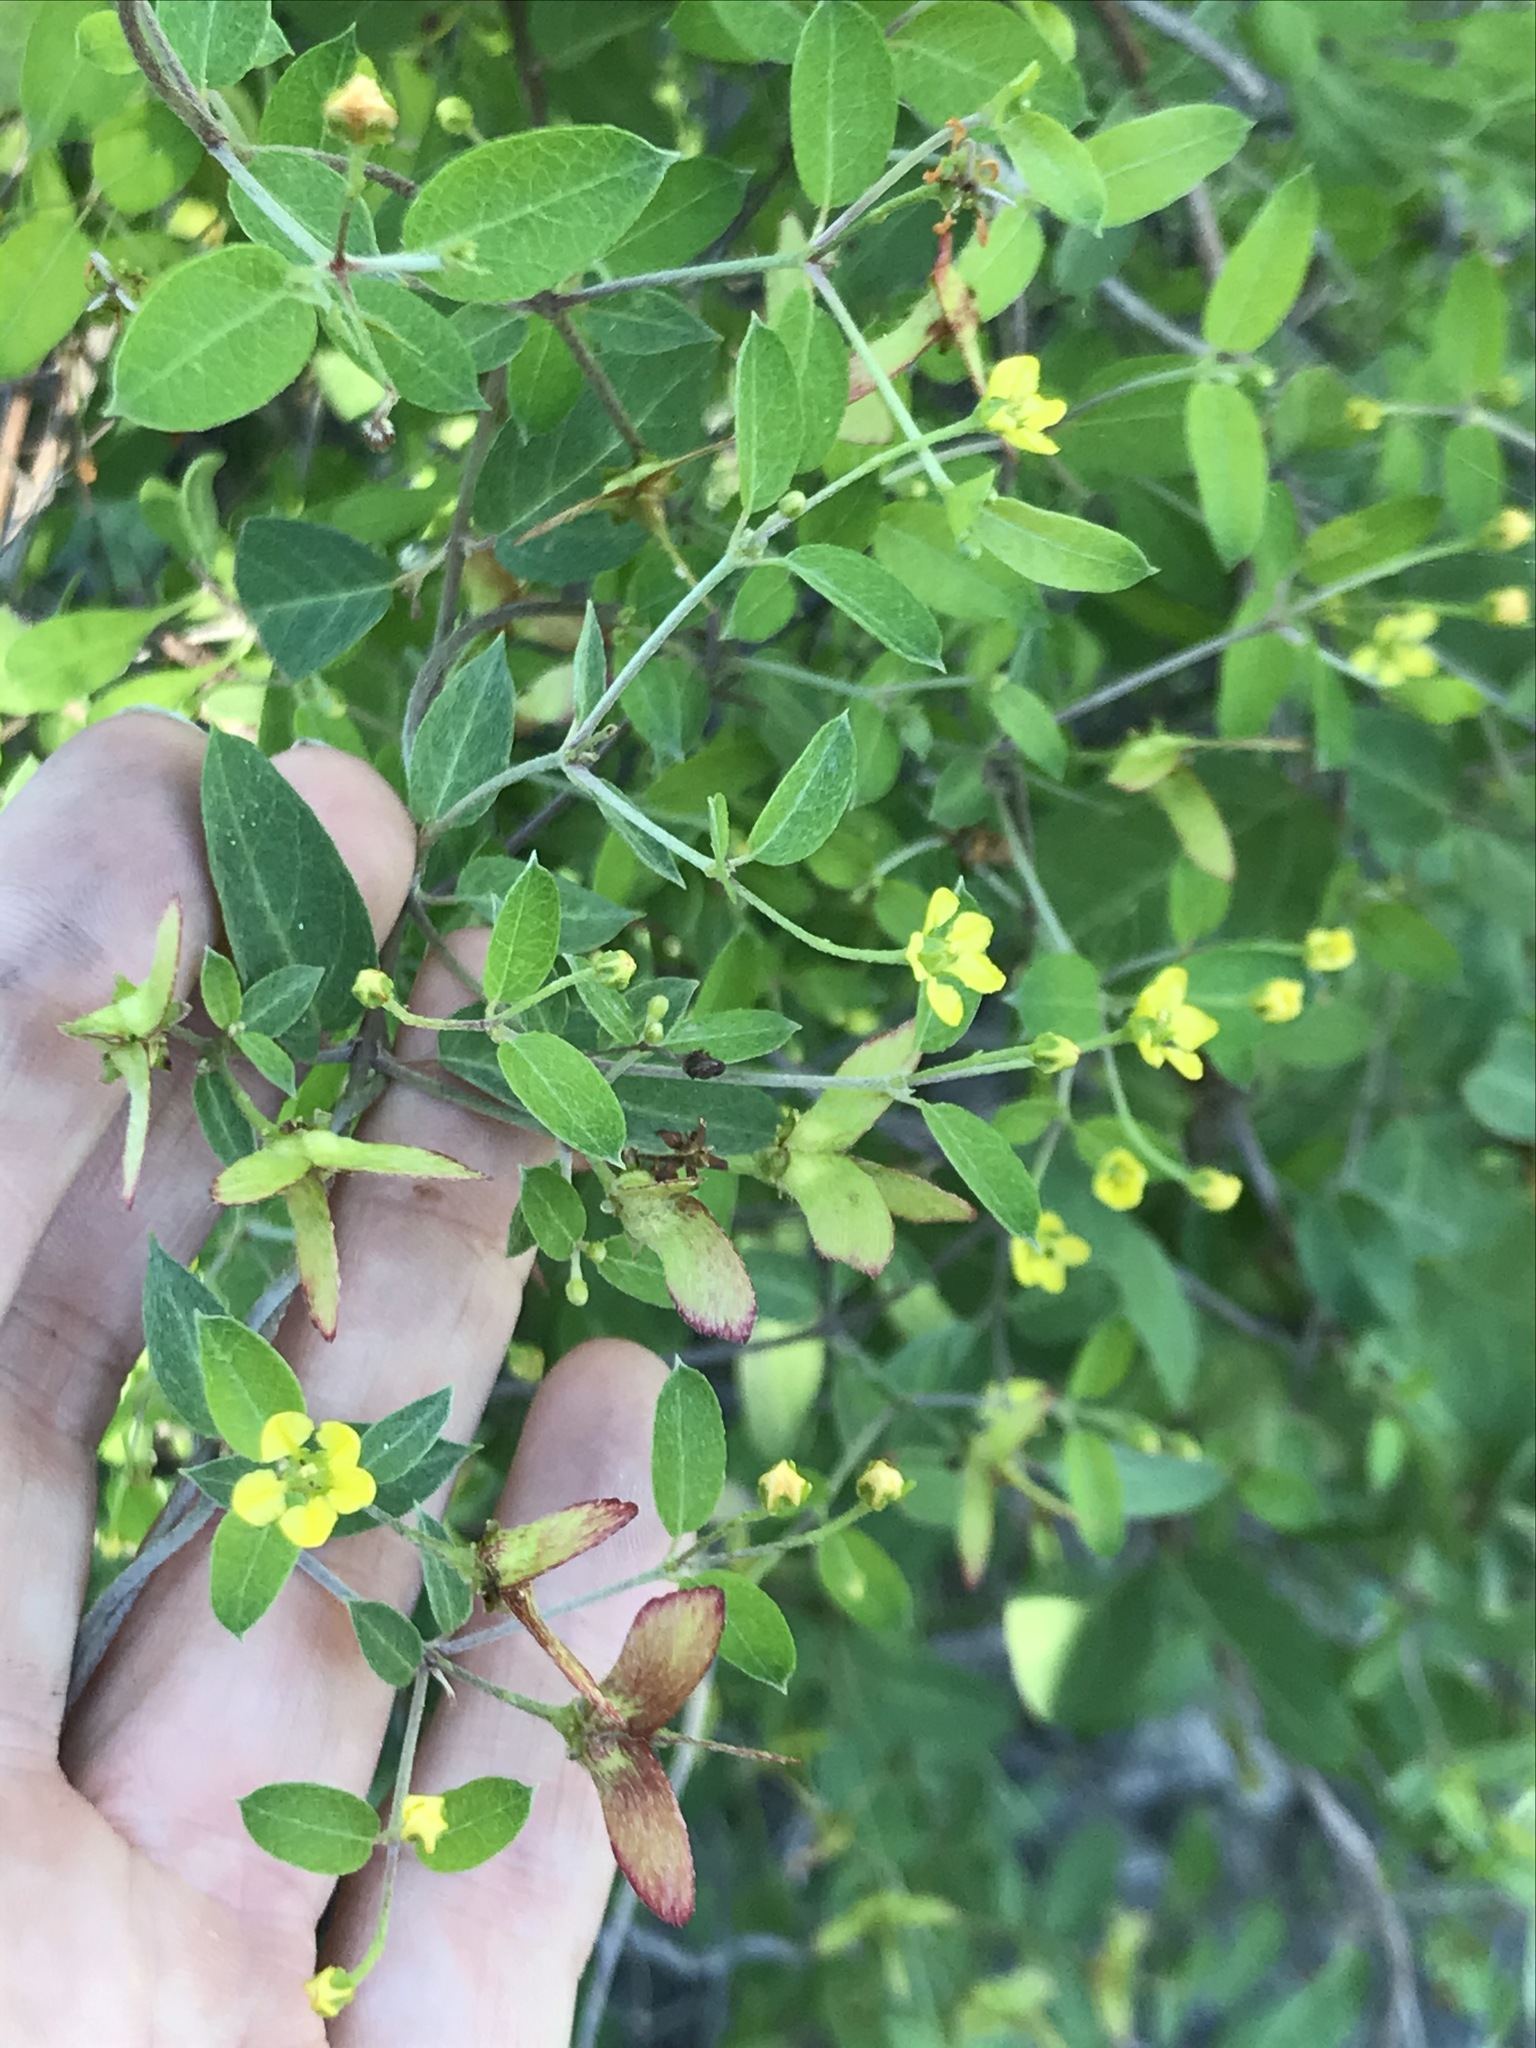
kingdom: Plantae
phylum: Tracheophyta
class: Magnoliopsida
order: Malpighiales
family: Malpighiaceae
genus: Cottsia
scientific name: Cottsia californica
